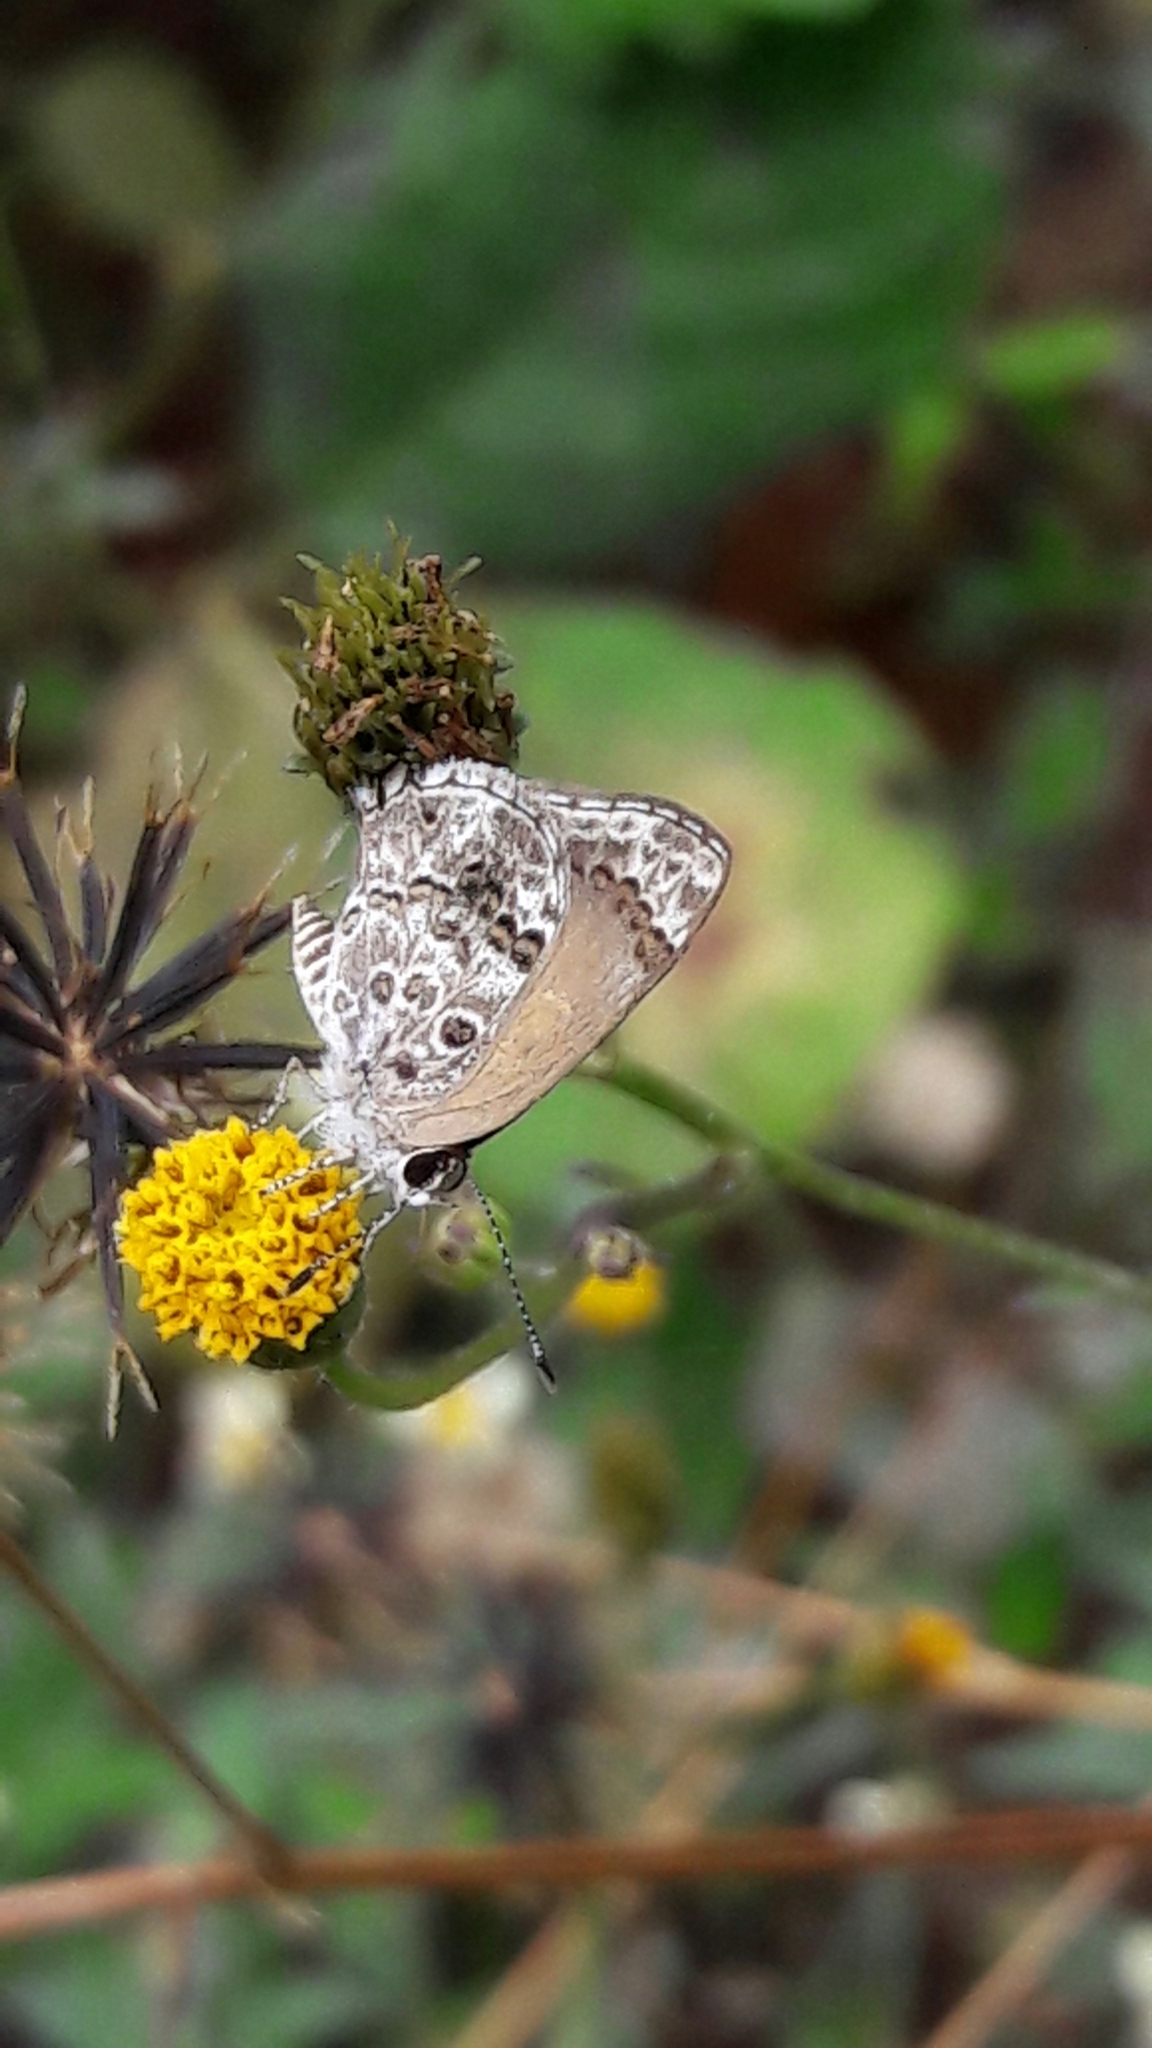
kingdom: Animalia
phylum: Arthropoda
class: Insecta
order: Lepidoptera
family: Lycaenidae
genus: Strymon
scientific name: Strymon astiocha
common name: Gray-spotted scrub-hairstreak
